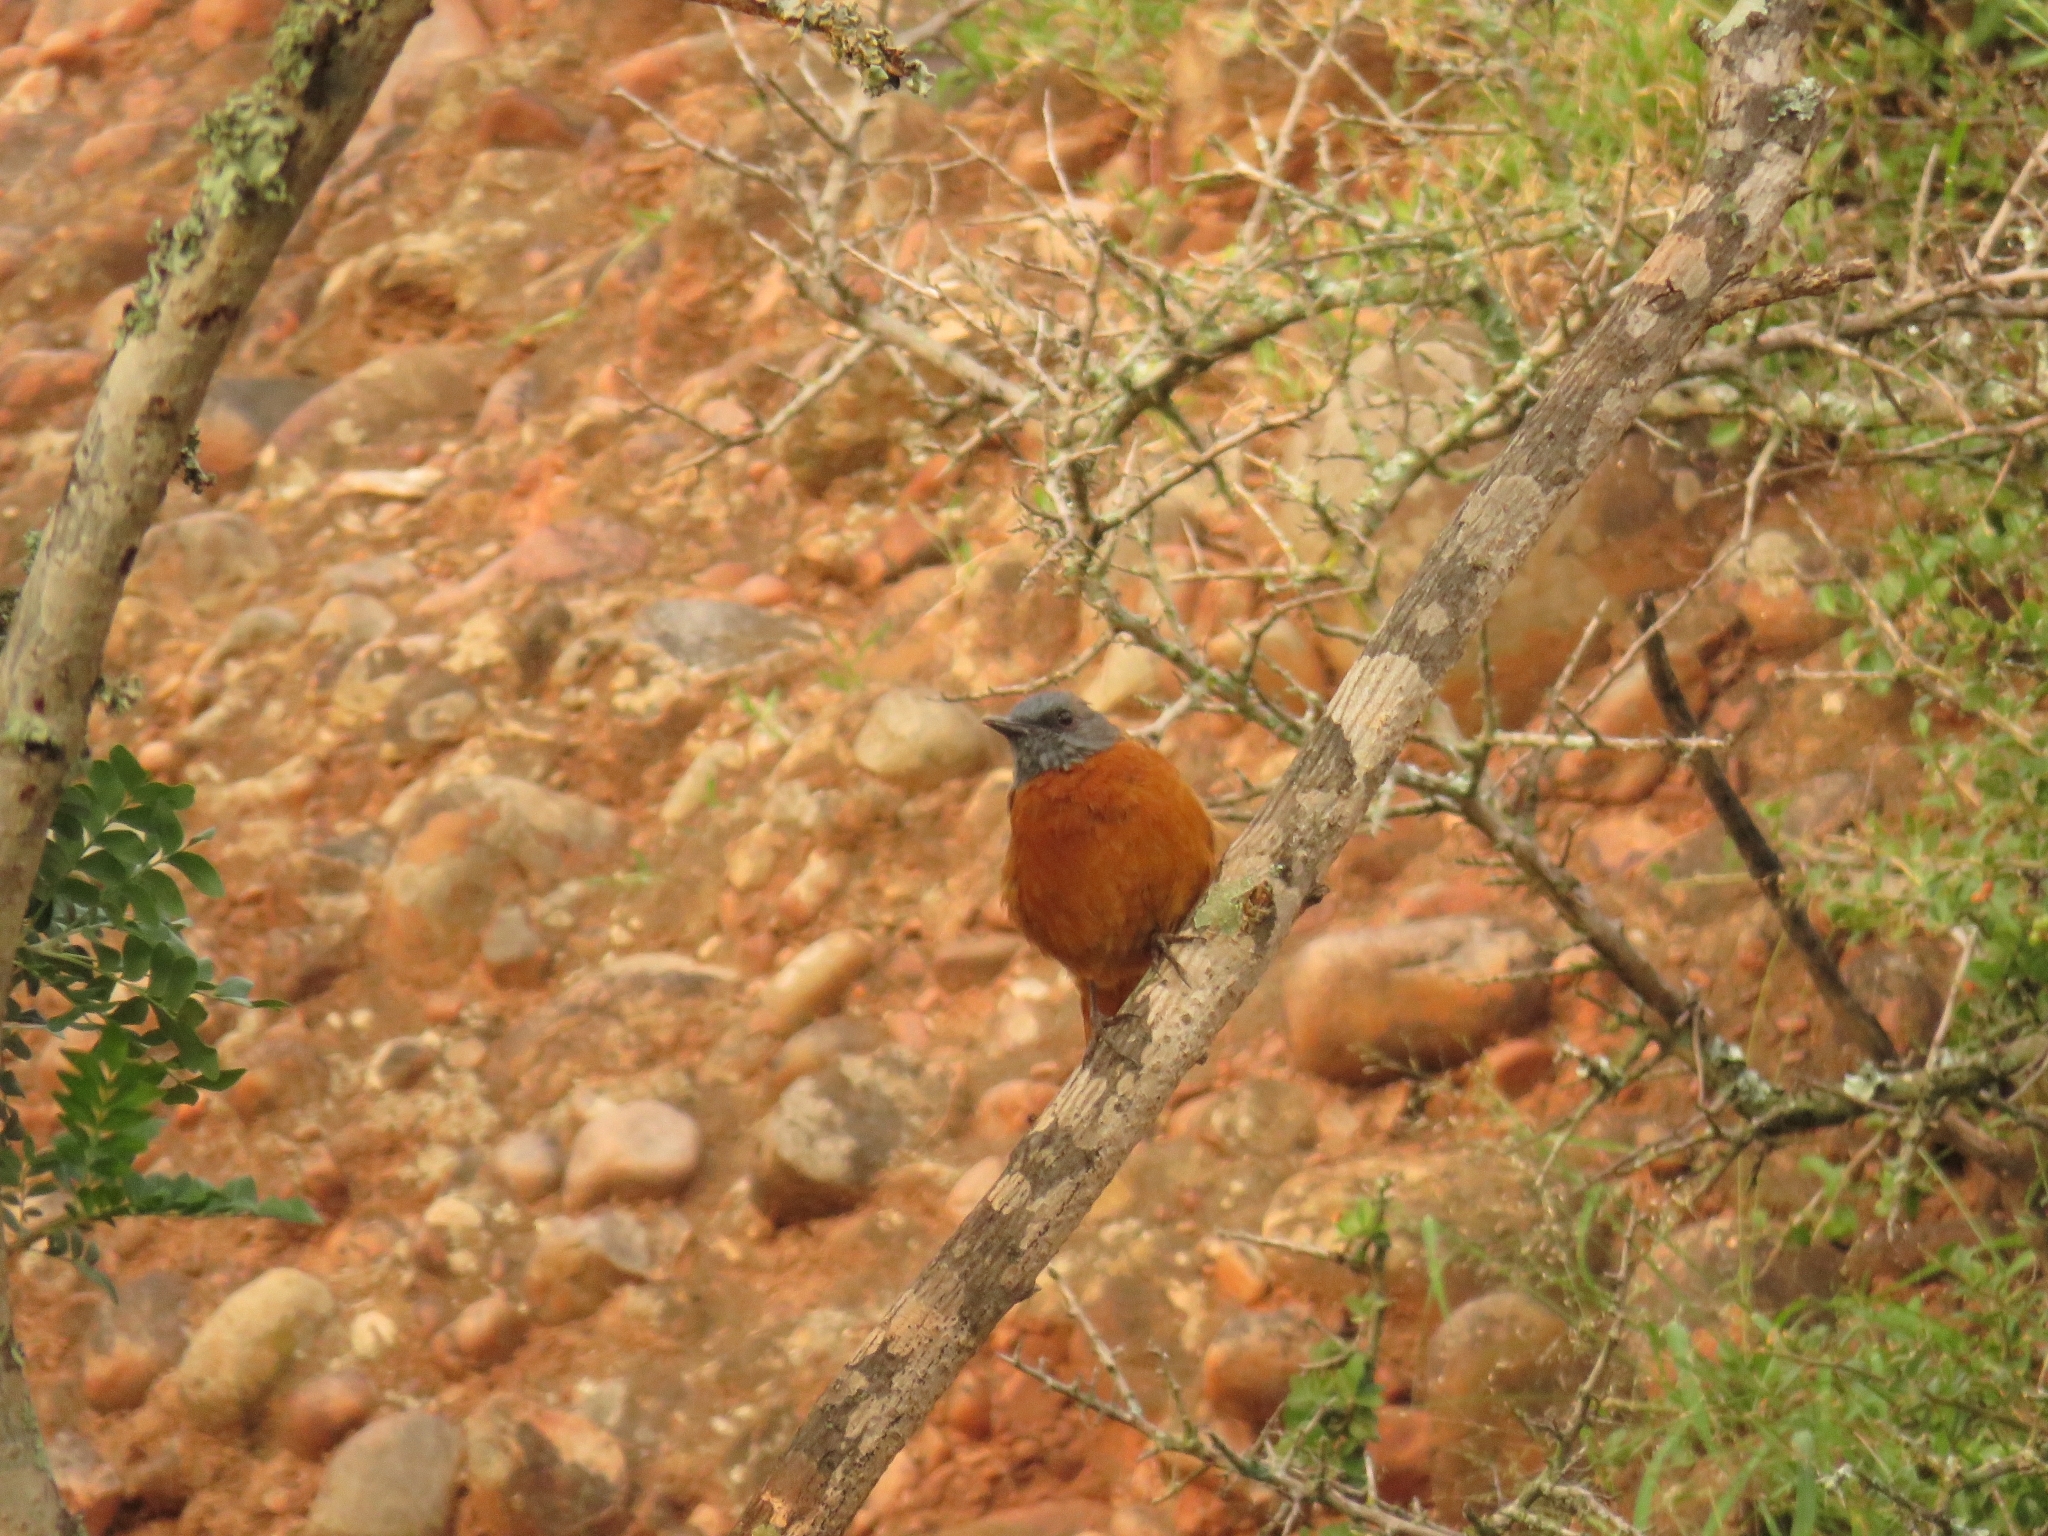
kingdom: Animalia
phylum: Chordata
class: Aves
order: Passeriformes
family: Muscicapidae
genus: Monticola
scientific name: Monticola rupestris
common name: Cape rock thrush
